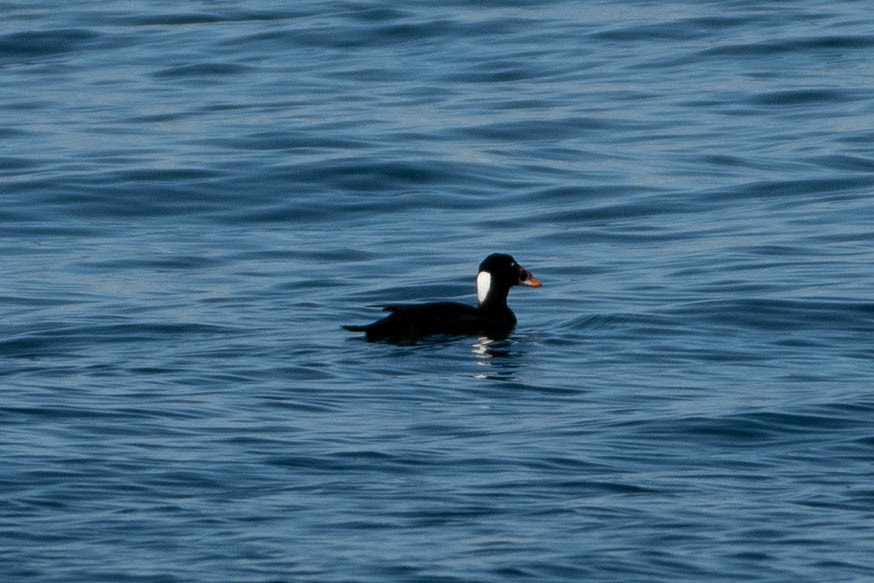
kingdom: Animalia
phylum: Chordata
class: Aves
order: Anseriformes
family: Anatidae
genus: Melanitta
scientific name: Melanitta perspicillata
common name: Surf scoter
